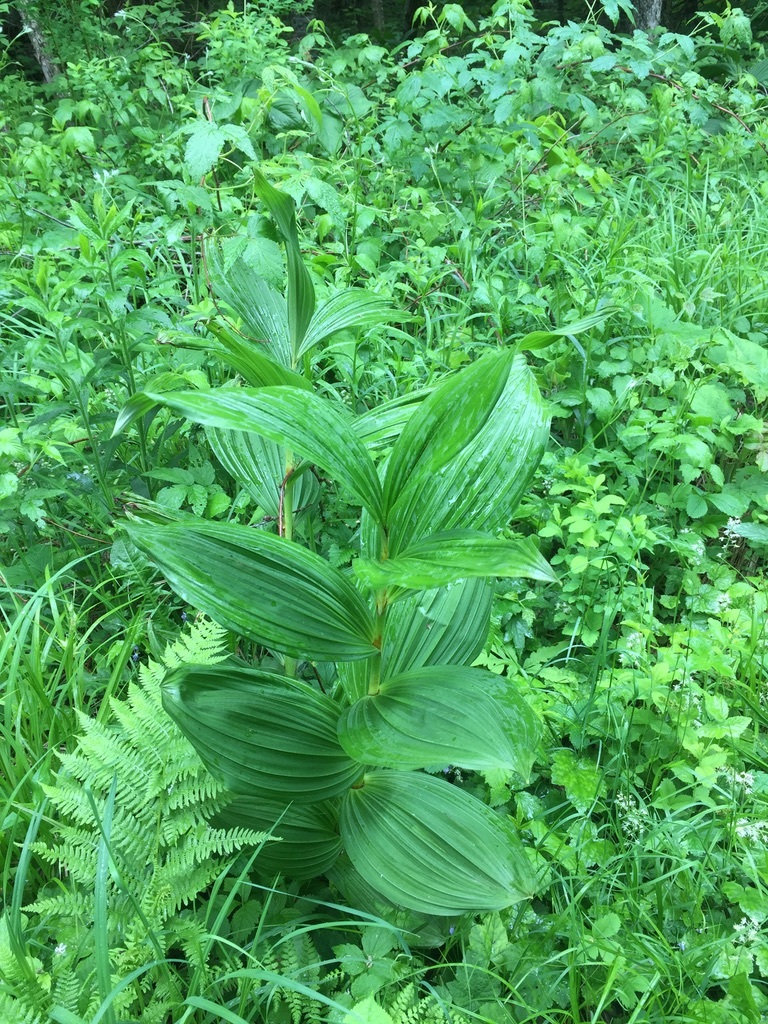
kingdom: Plantae
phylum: Tracheophyta
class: Liliopsida
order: Liliales
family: Melanthiaceae
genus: Veratrum
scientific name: Veratrum viride
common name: American false hellebore
